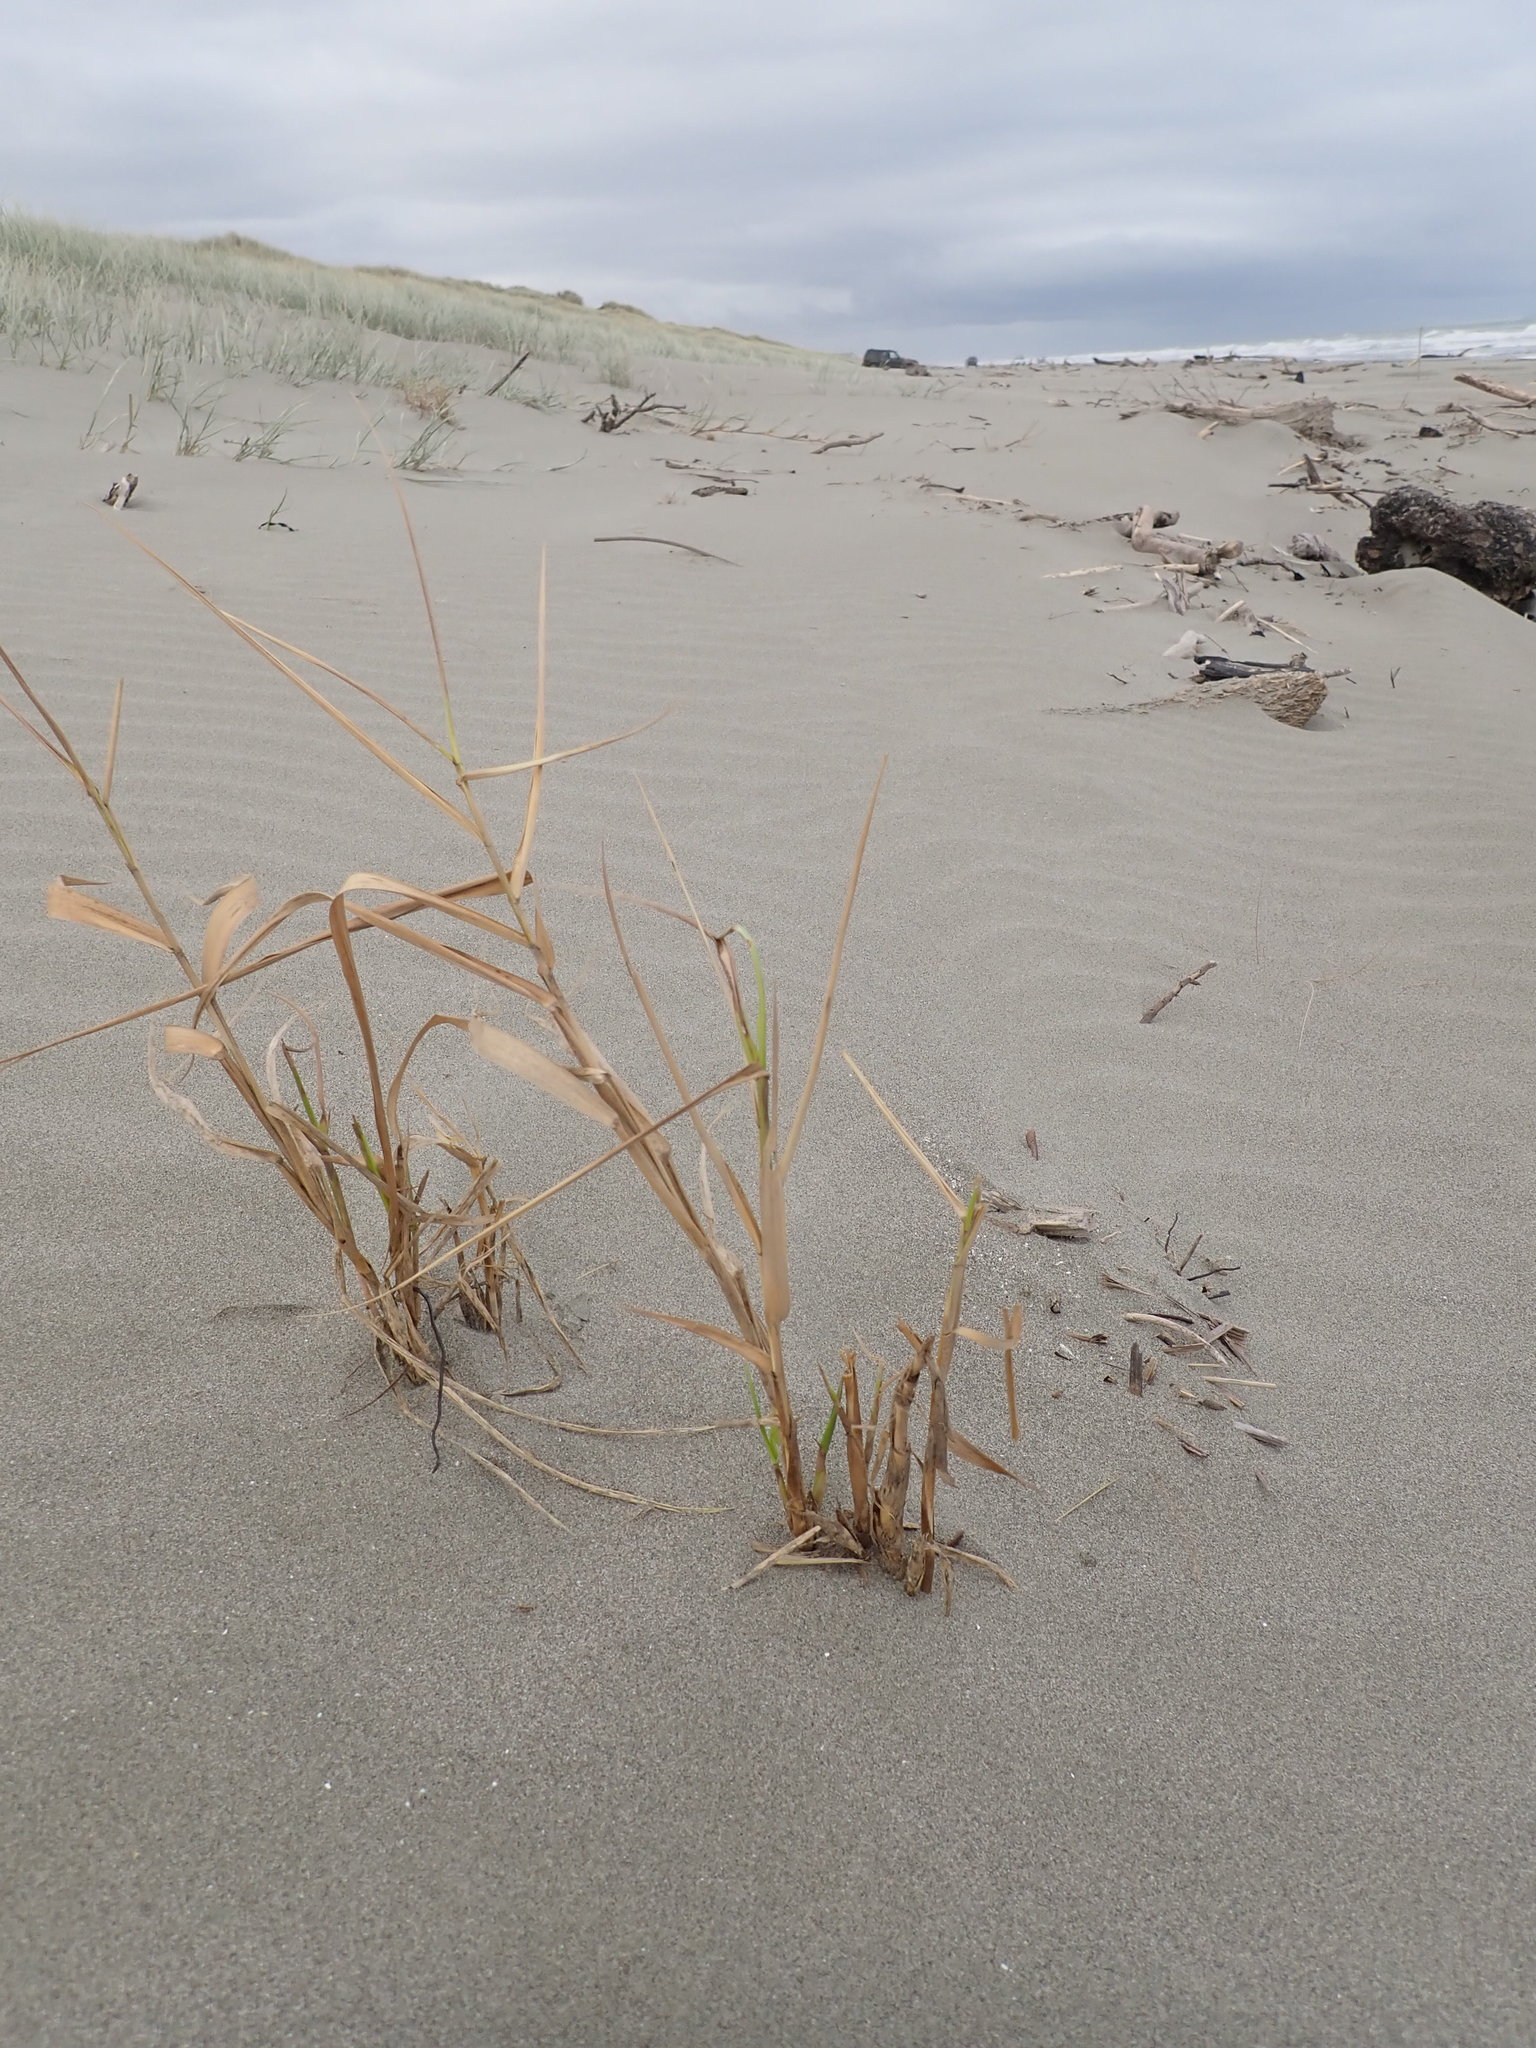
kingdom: Plantae
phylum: Tracheophyta
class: Liliopsida
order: Poales
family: Poaceae
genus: Phragmites
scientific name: Phragmites karka
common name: Tropical reed
